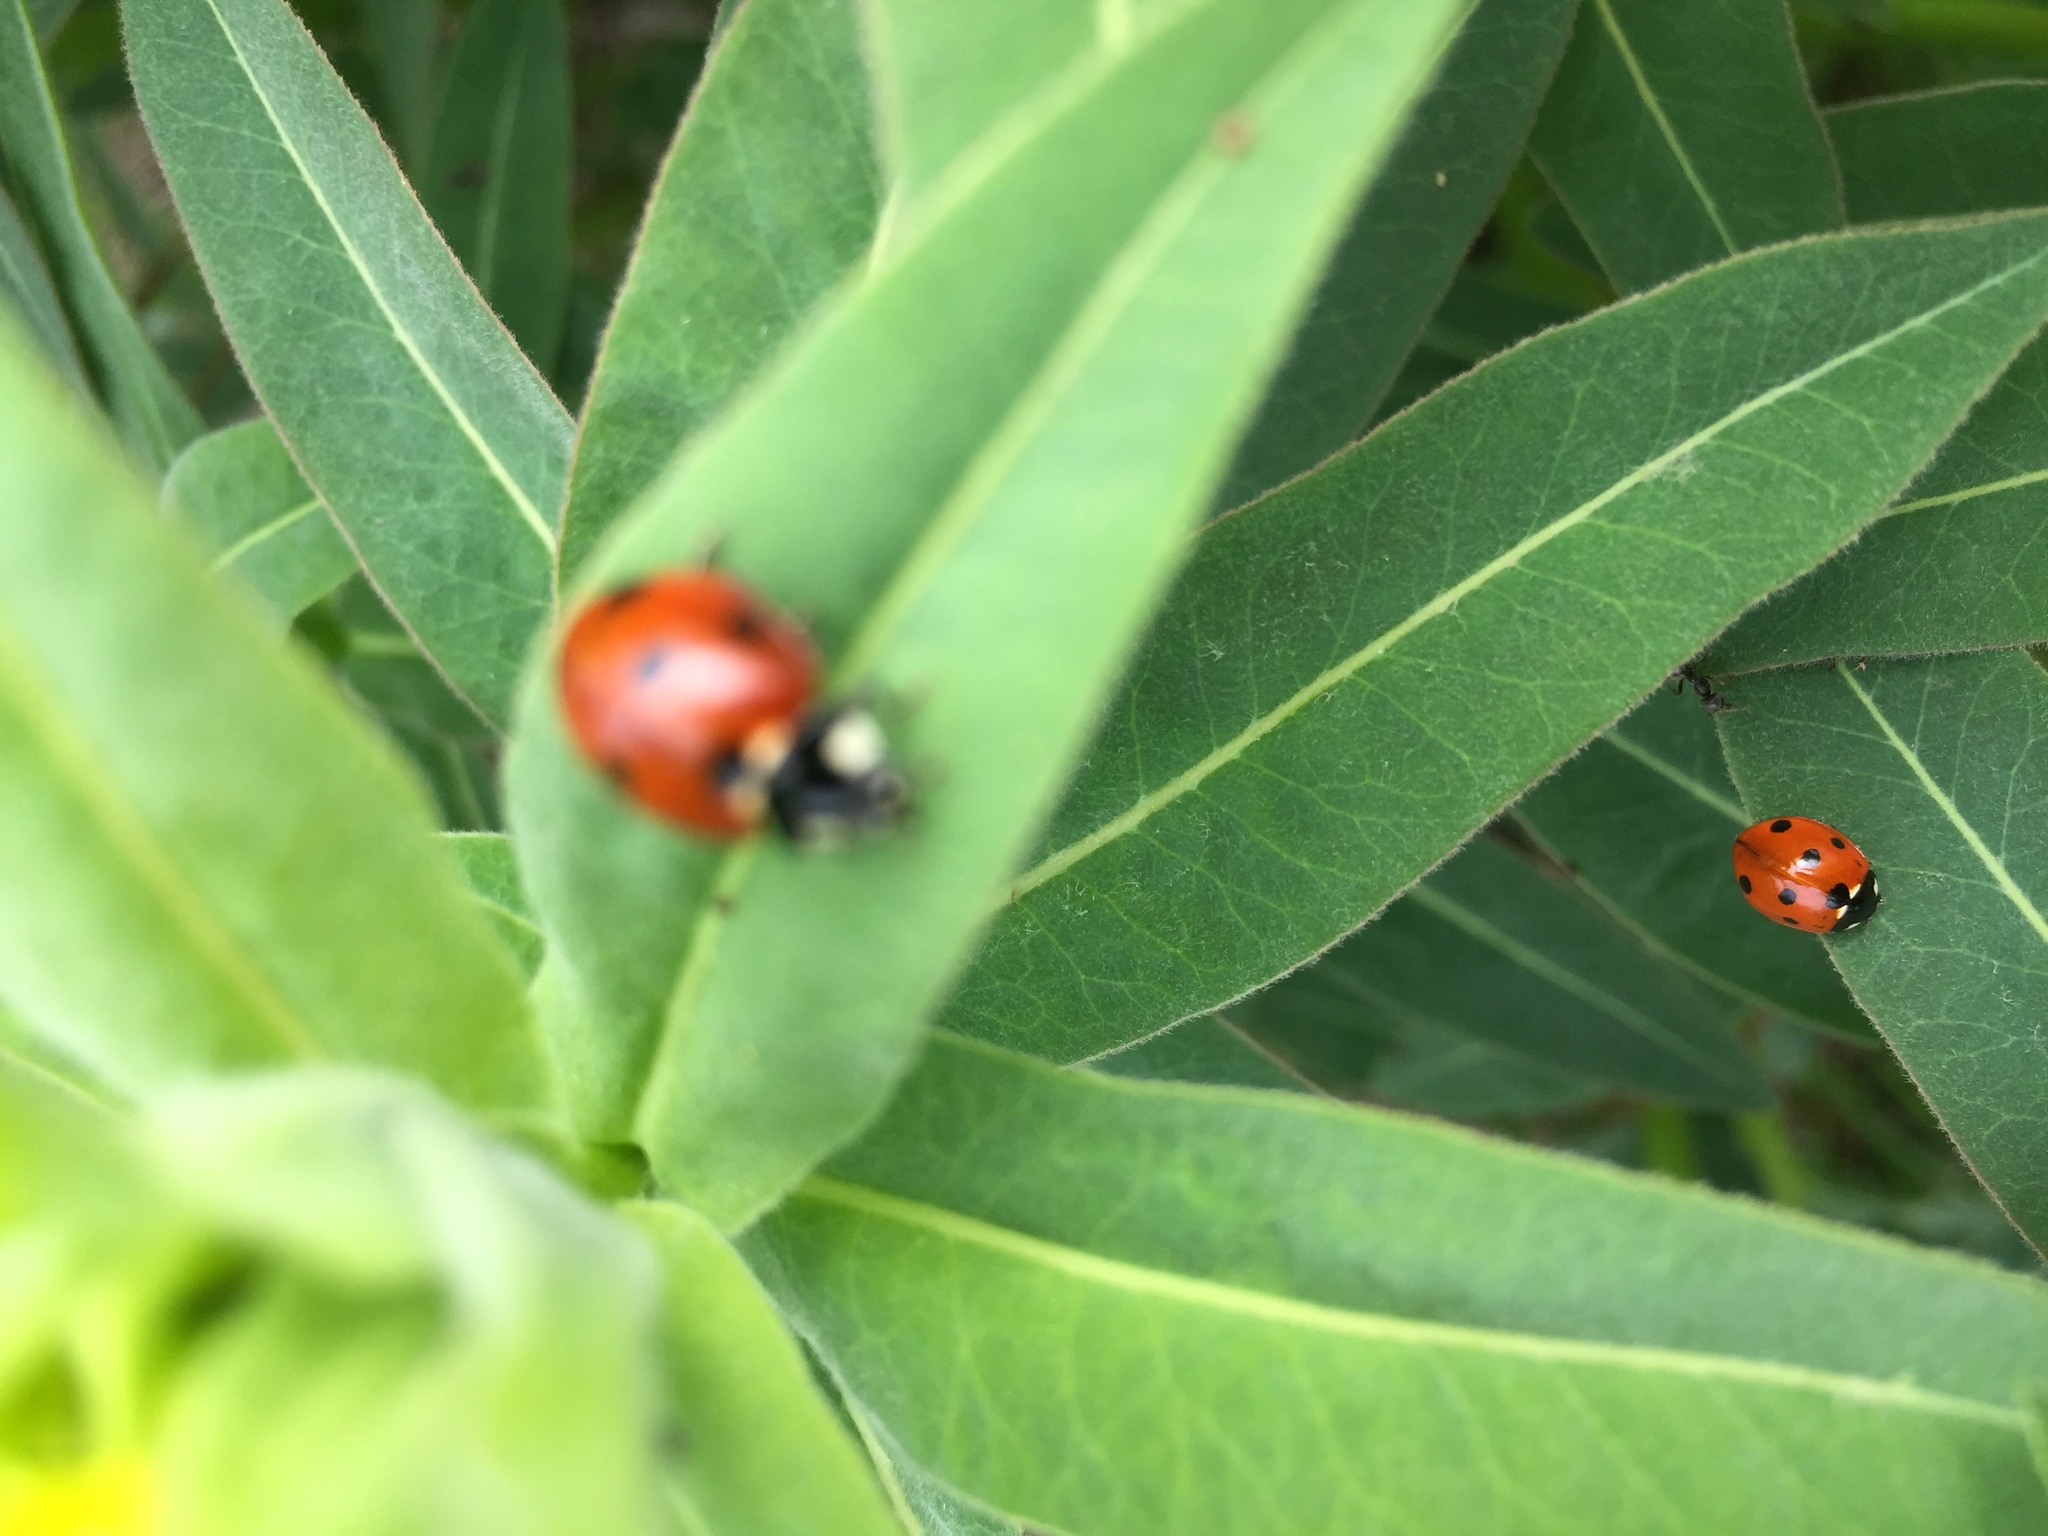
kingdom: Animalia
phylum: Arthropoda
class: Insecta
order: Coleoptera
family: Coccinellidae
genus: Coccinella
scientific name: Coccinella septempunctata
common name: Sevenspotted lady beetle
